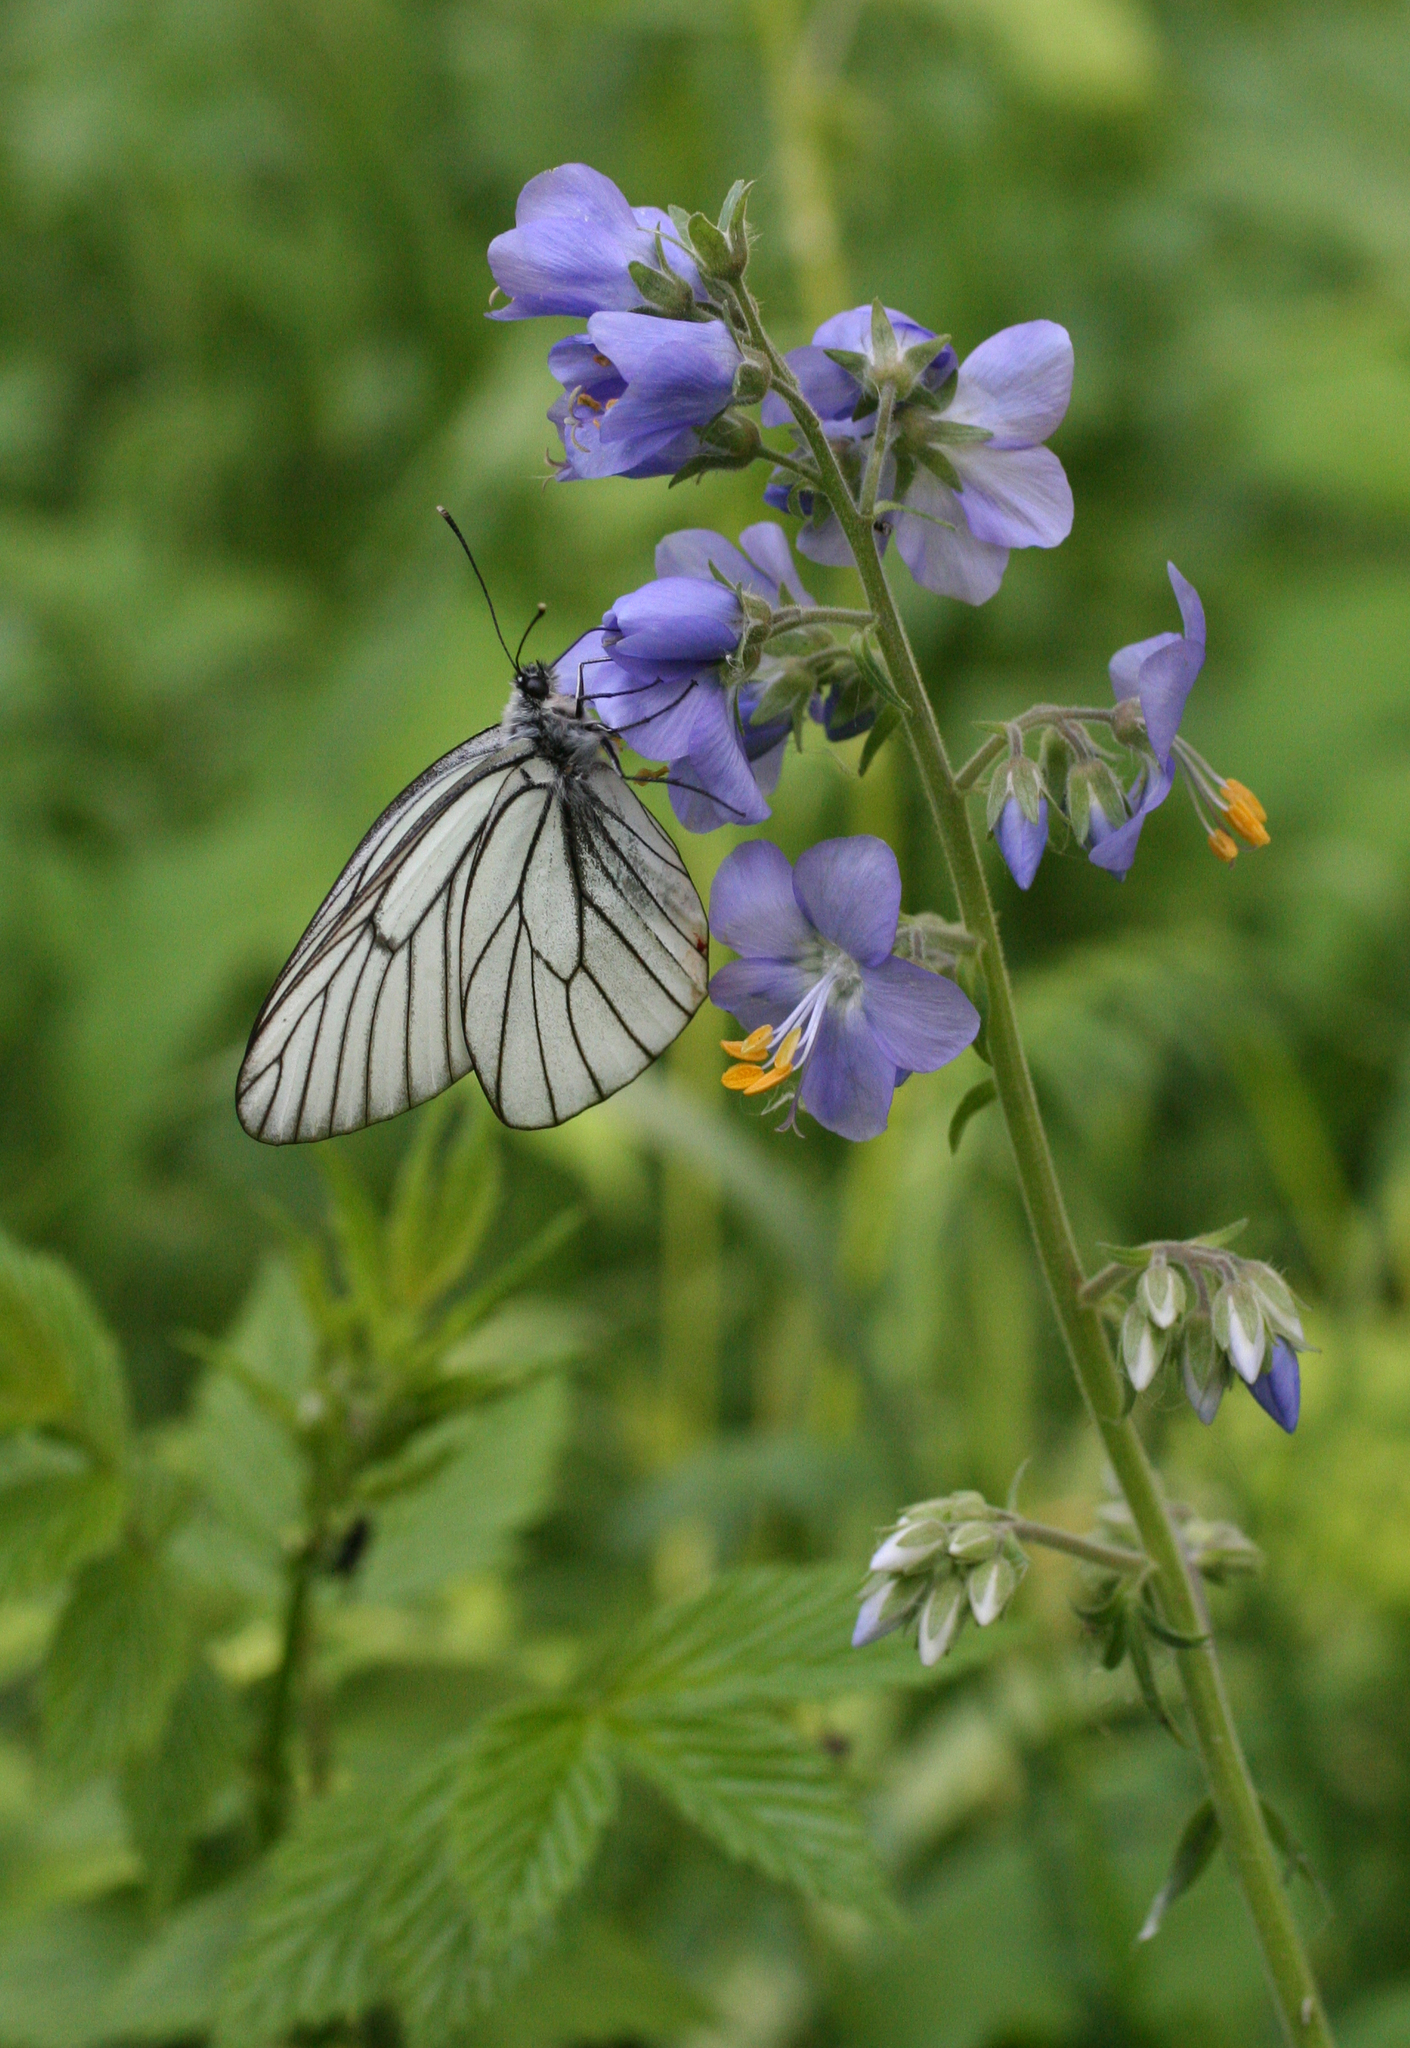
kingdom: Plantae
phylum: Tracheophyta
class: Magnoliopsida
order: Ericales
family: Polemoniaceae
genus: Polemonium
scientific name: Polemonium caeruleum
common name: Jacob's-ladder
